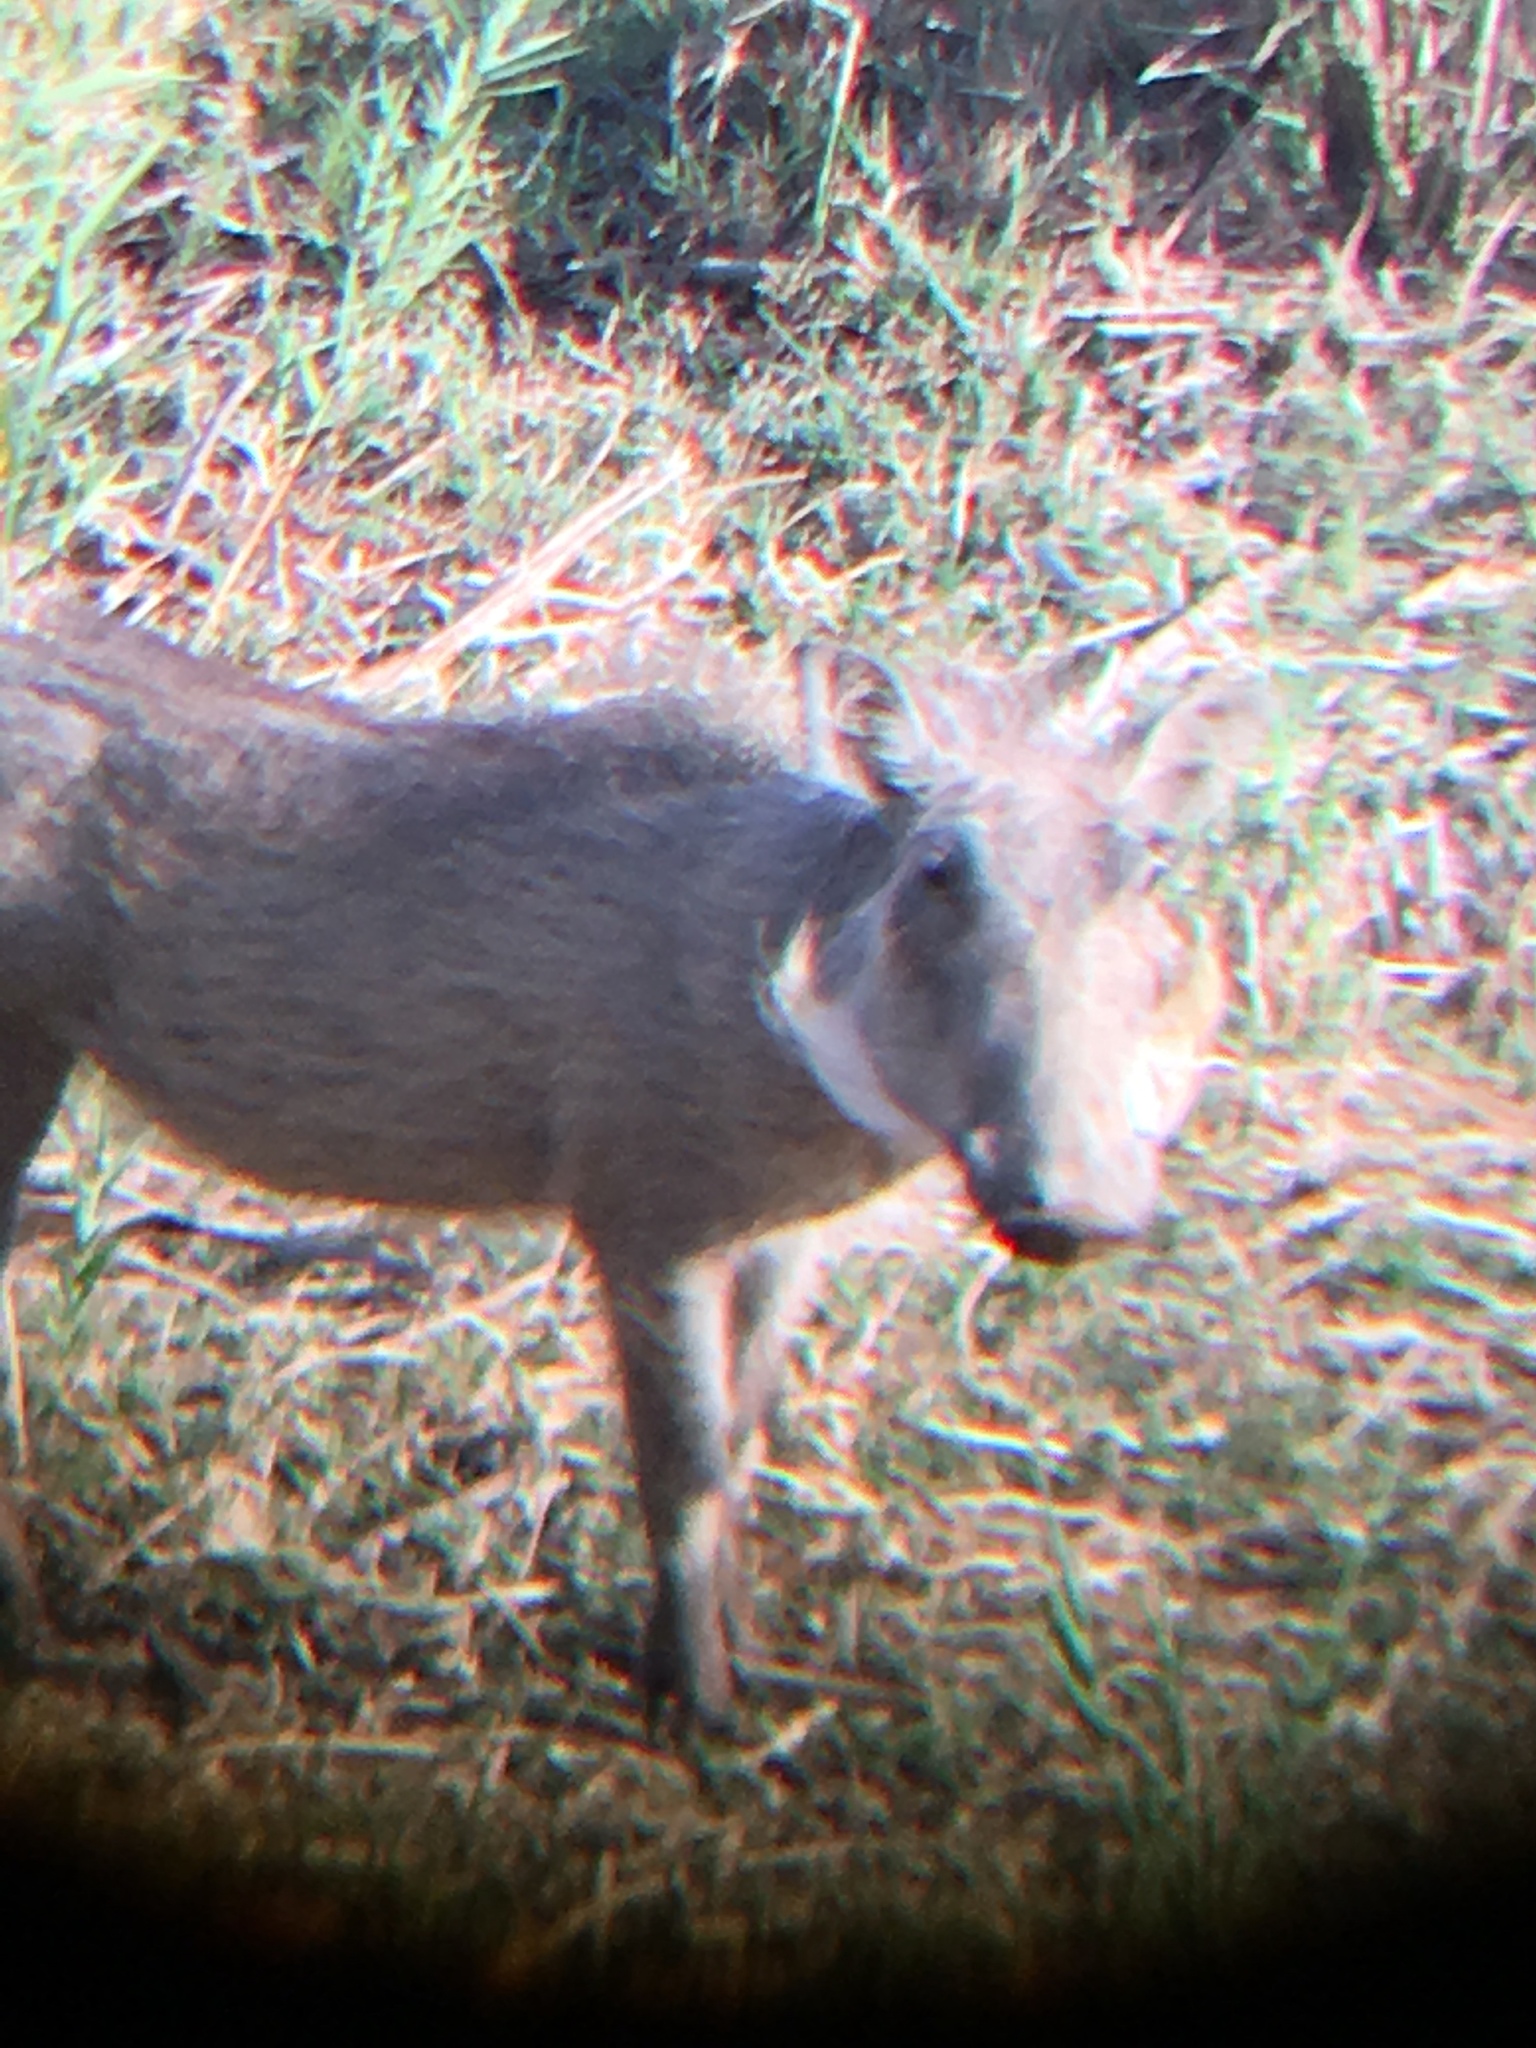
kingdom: Animalia
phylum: Chordata
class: Mammalia
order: Artiodactyla
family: Suidae
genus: Phacochoerus
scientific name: Phacochoerus africanus
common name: Common warthog
